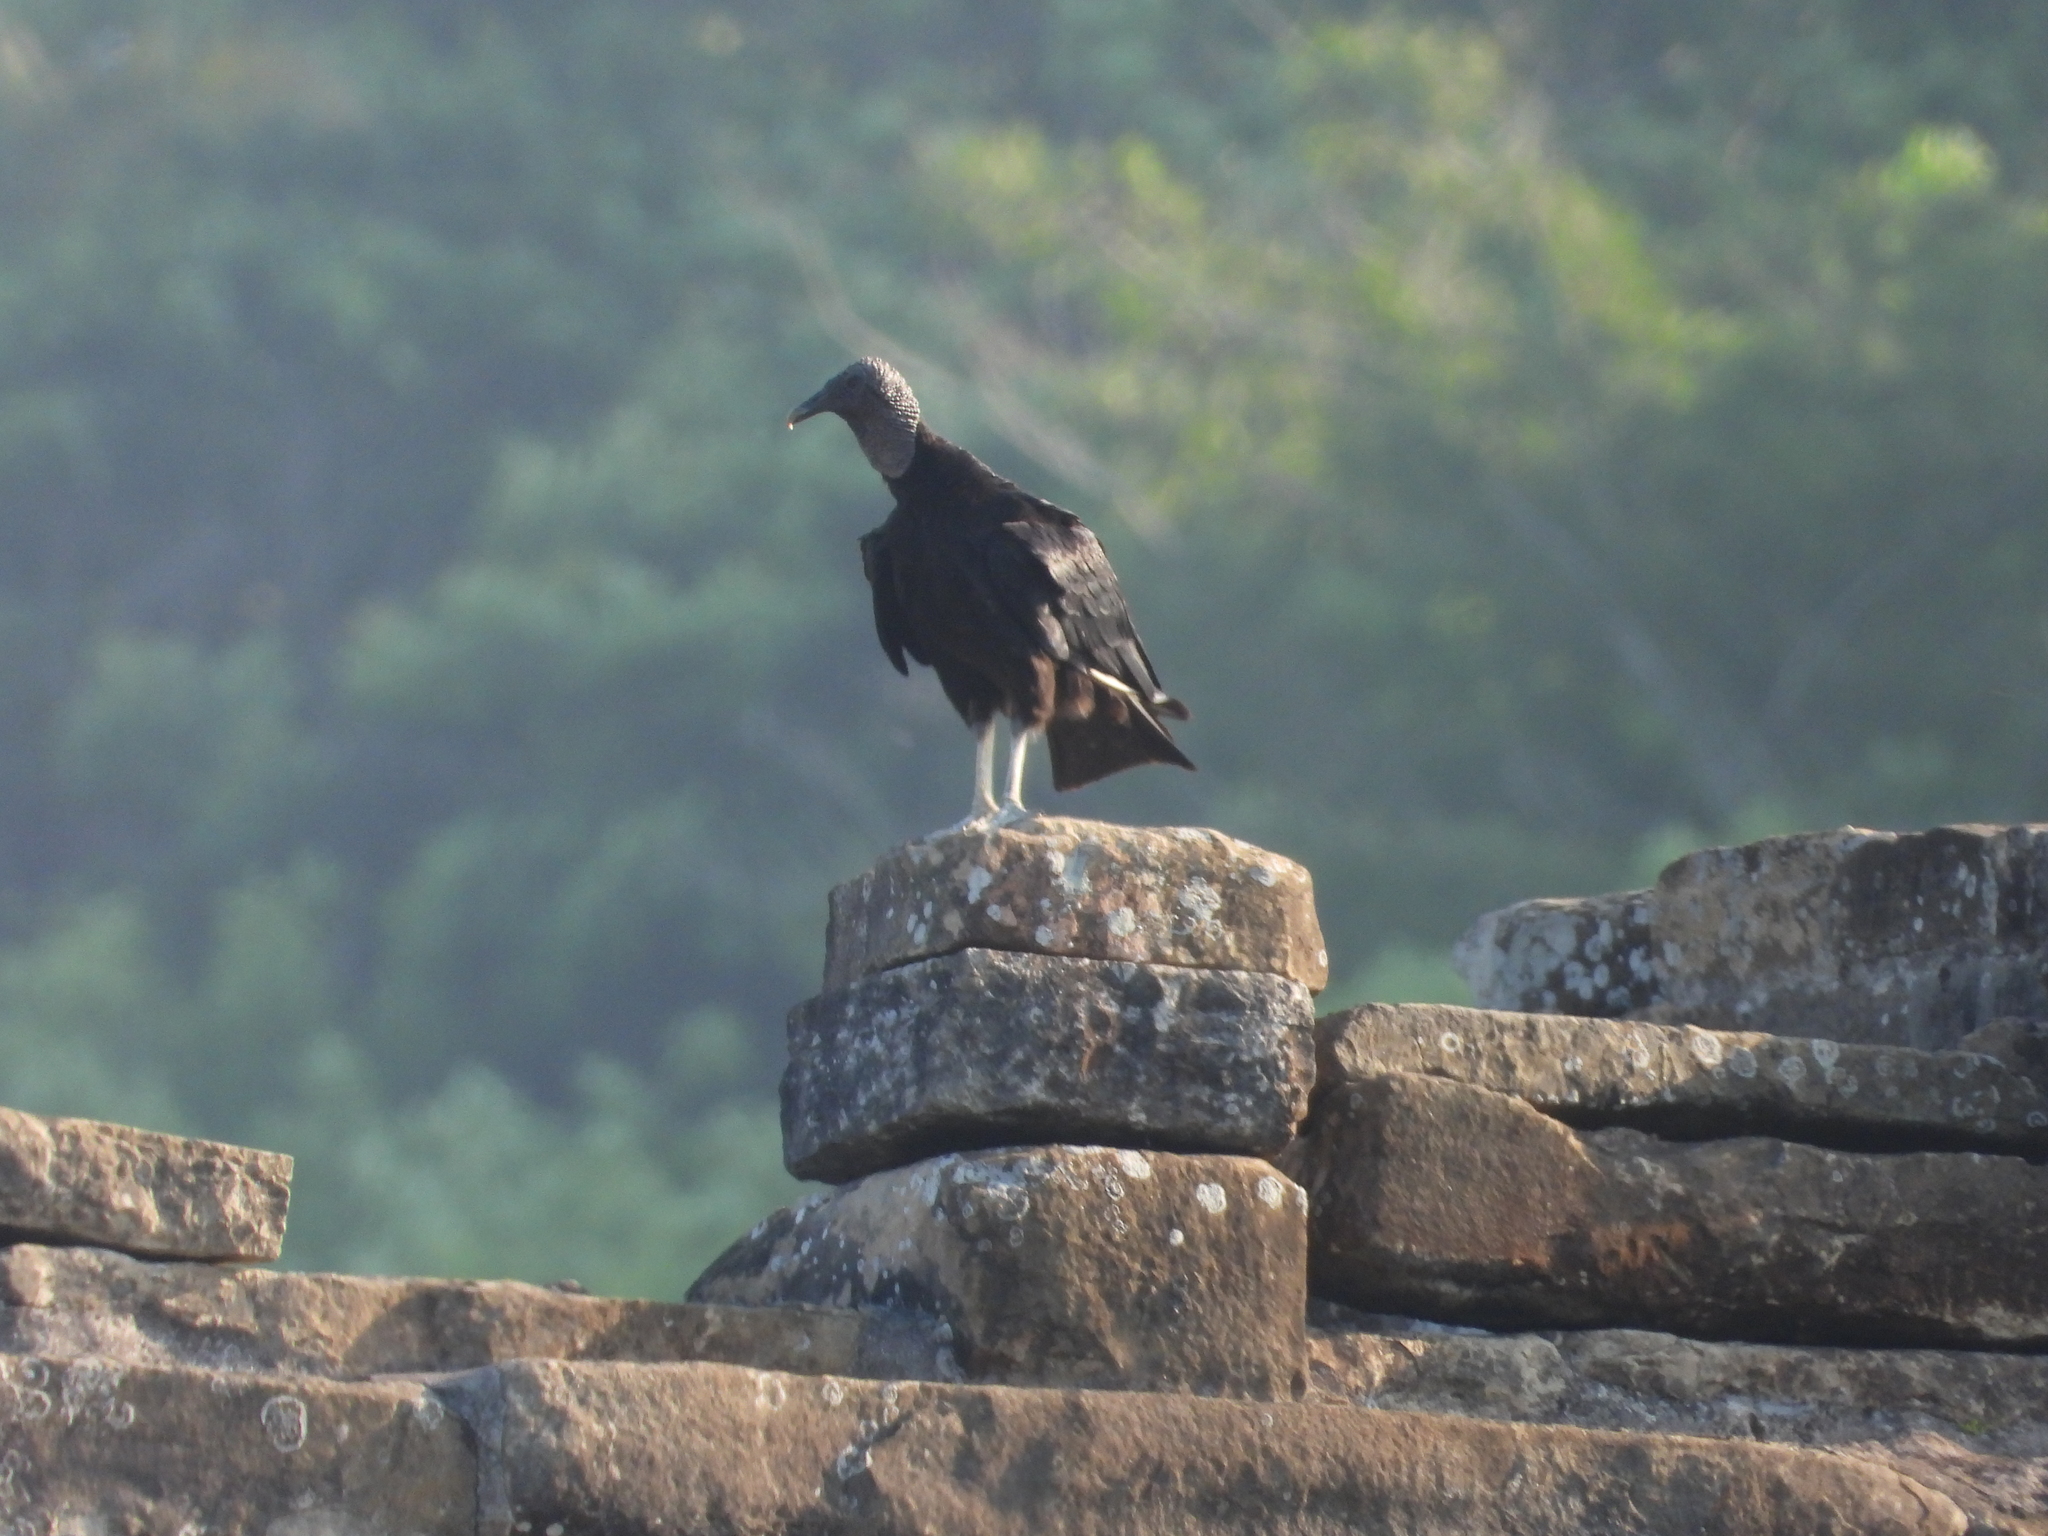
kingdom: Animalia
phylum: Chordata
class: Aves
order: Accipitriformes
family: Cathartidae
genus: Coragyps
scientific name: Coragyps atratus
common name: Black vulture
